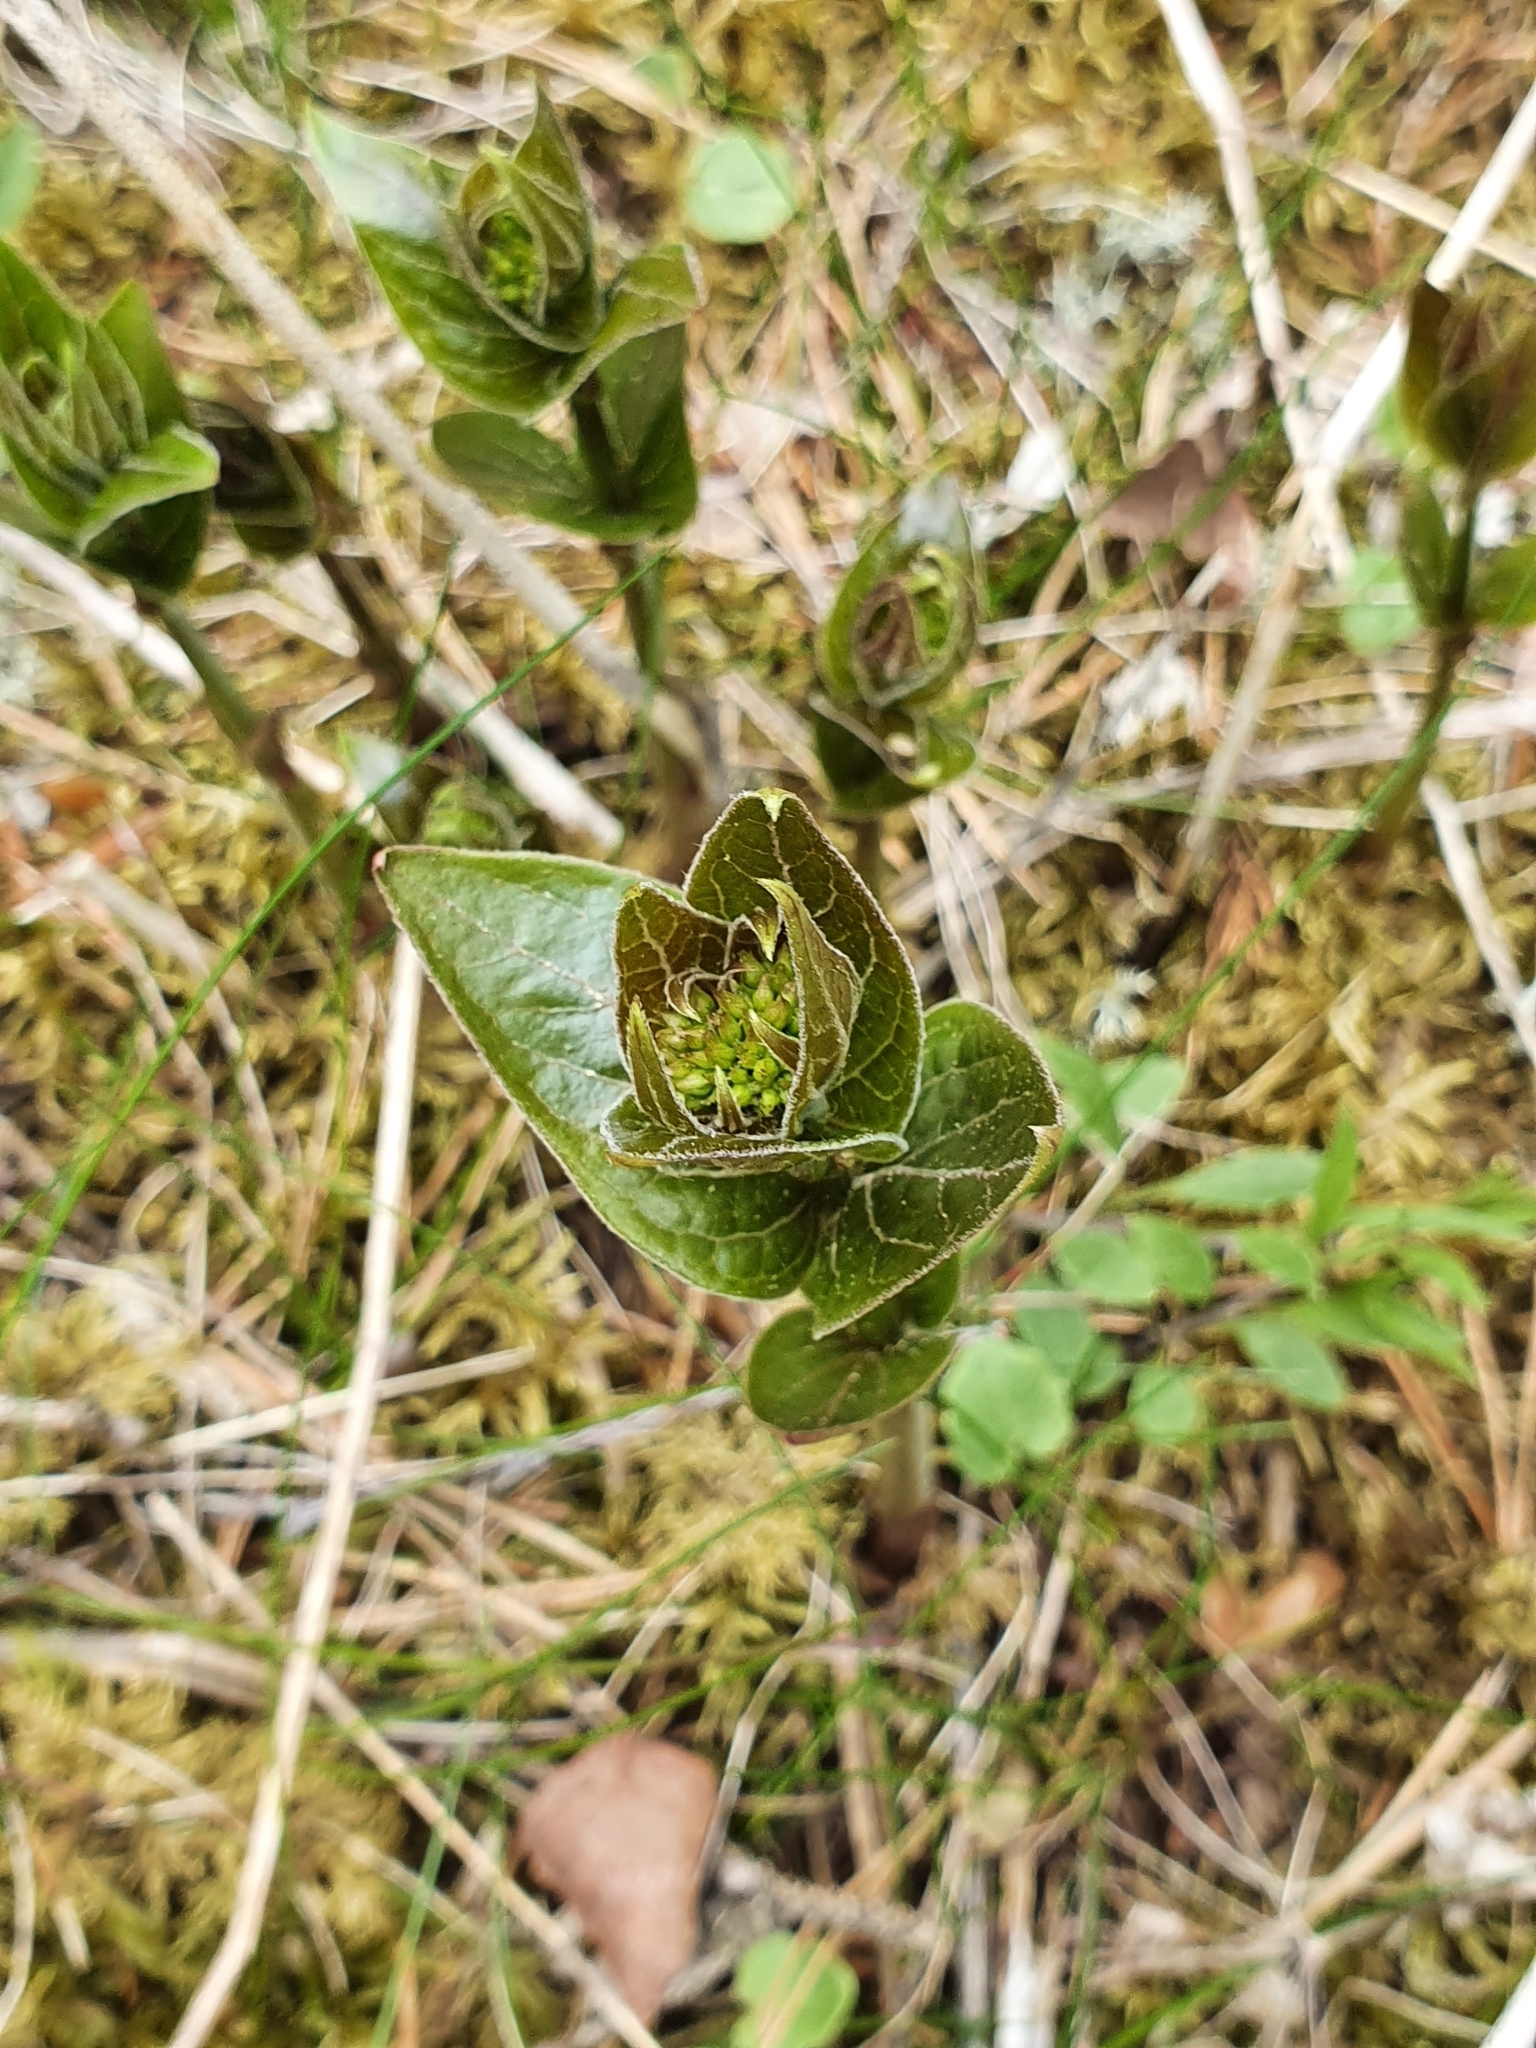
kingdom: Plantae
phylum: Tracheophyta
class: Magnoliopsida
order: Gentianales
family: Apocynaceae
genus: Vincetoxicum
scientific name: Vincetoxicum hirundinaria
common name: White swallowwort
